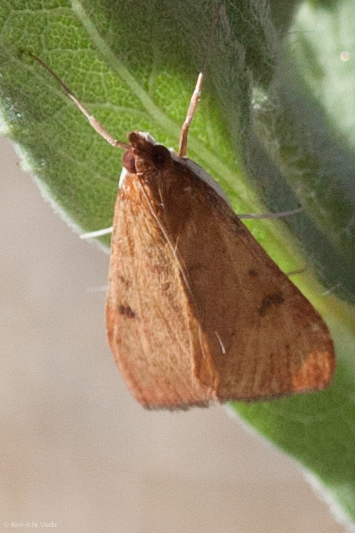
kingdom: Animalia
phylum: Arthropoda
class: Insecta
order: Lepidoptera
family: Crambidae
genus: Uresiphita
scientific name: Uresiphita reversalis
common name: Genista broom moth
